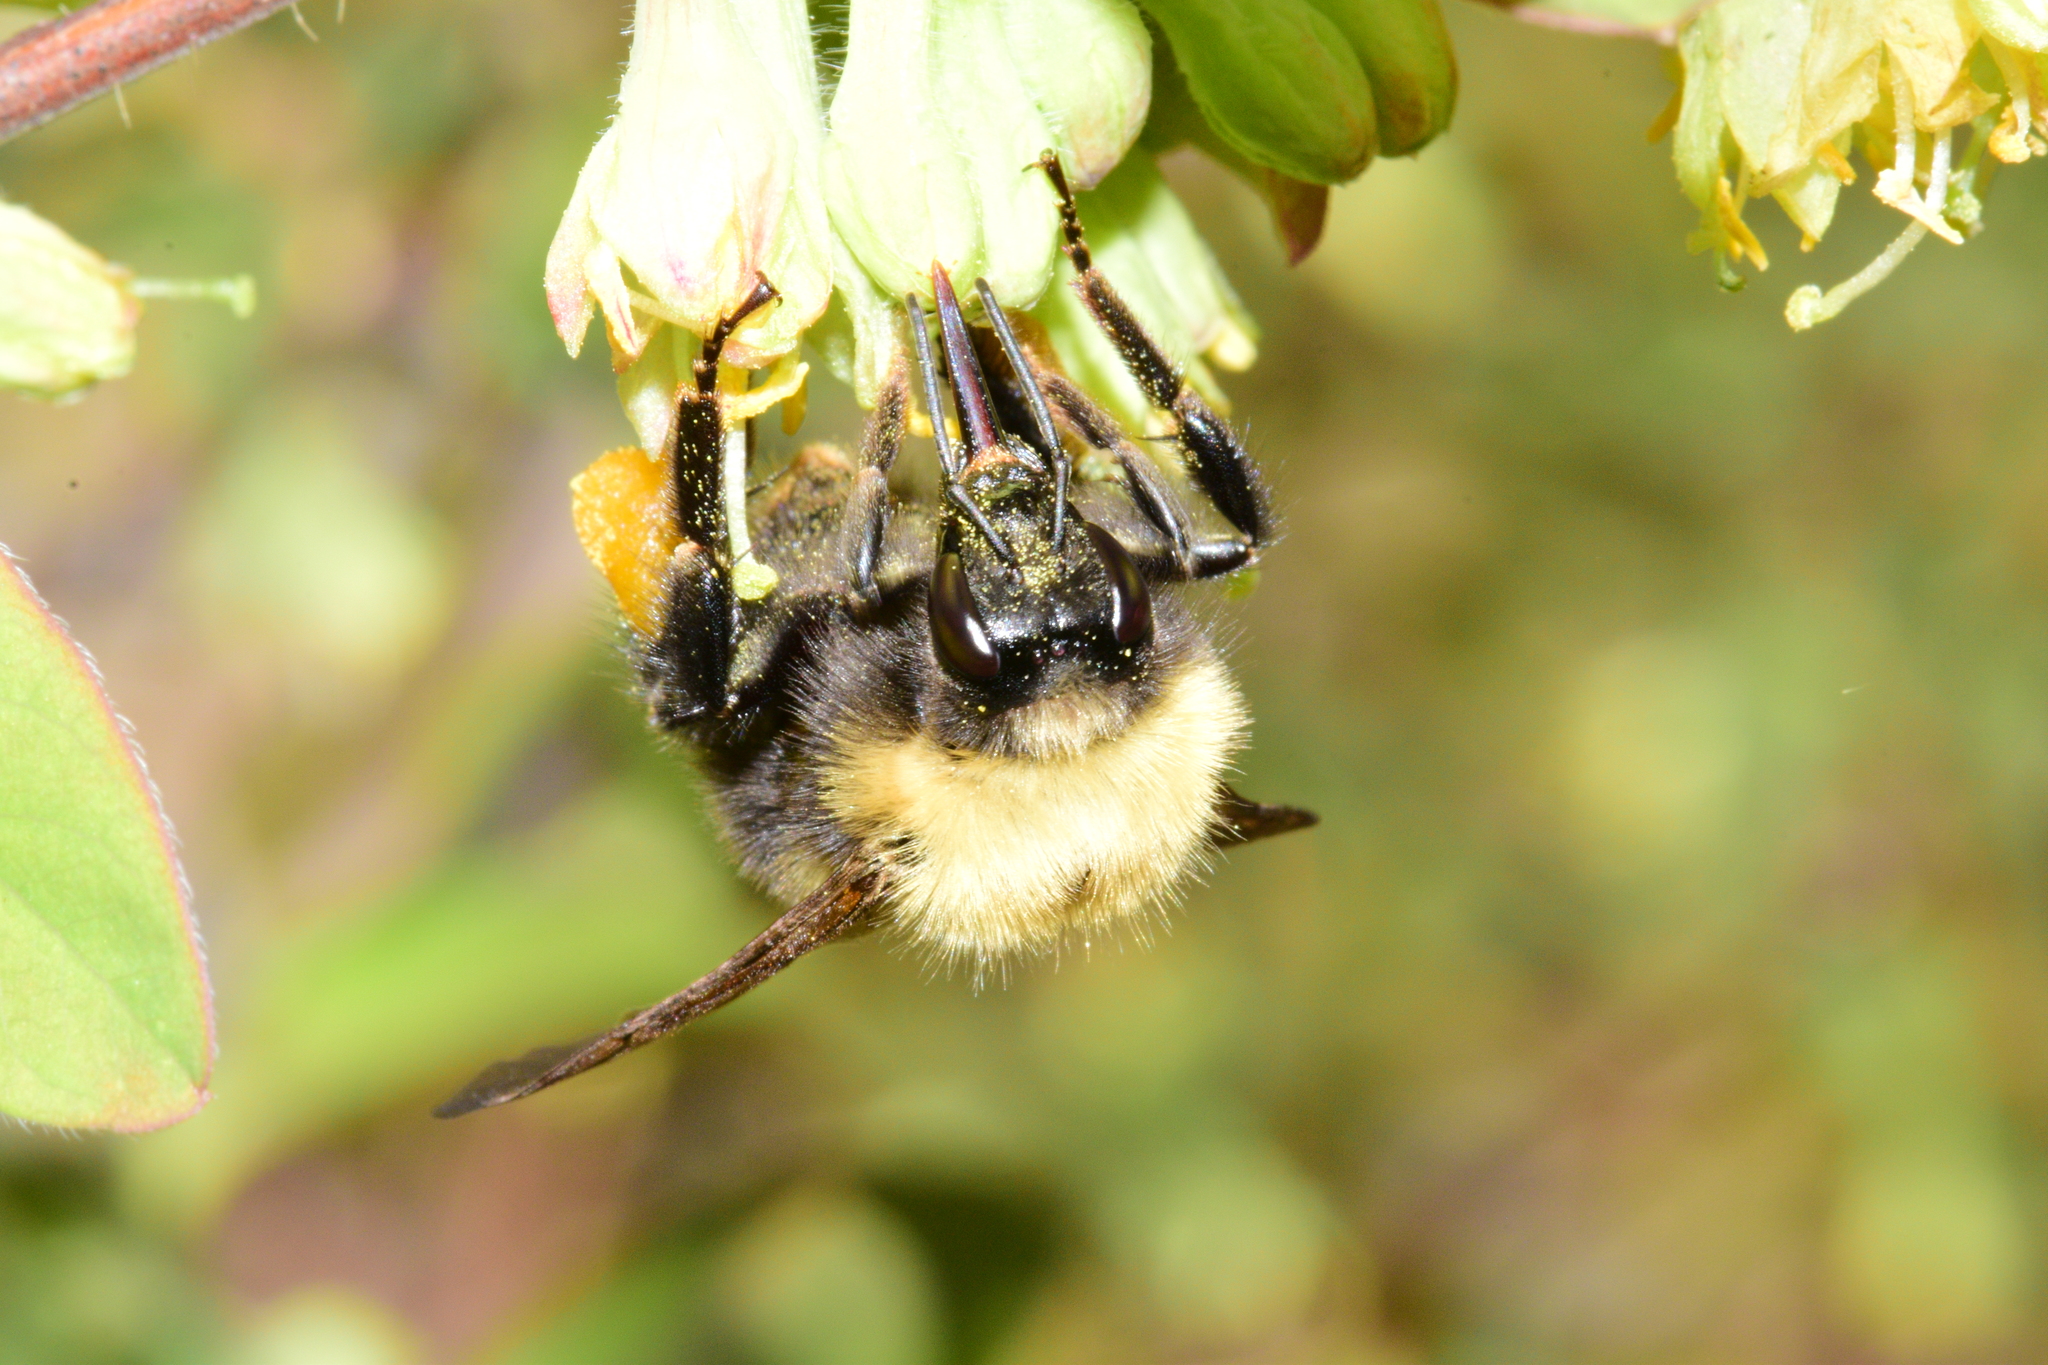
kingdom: Animalia
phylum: Arthropoda
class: Insecta
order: Hymenoptera
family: Apidae
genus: Bombus
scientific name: Bombus perplexus
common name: Confusing bumble bee
